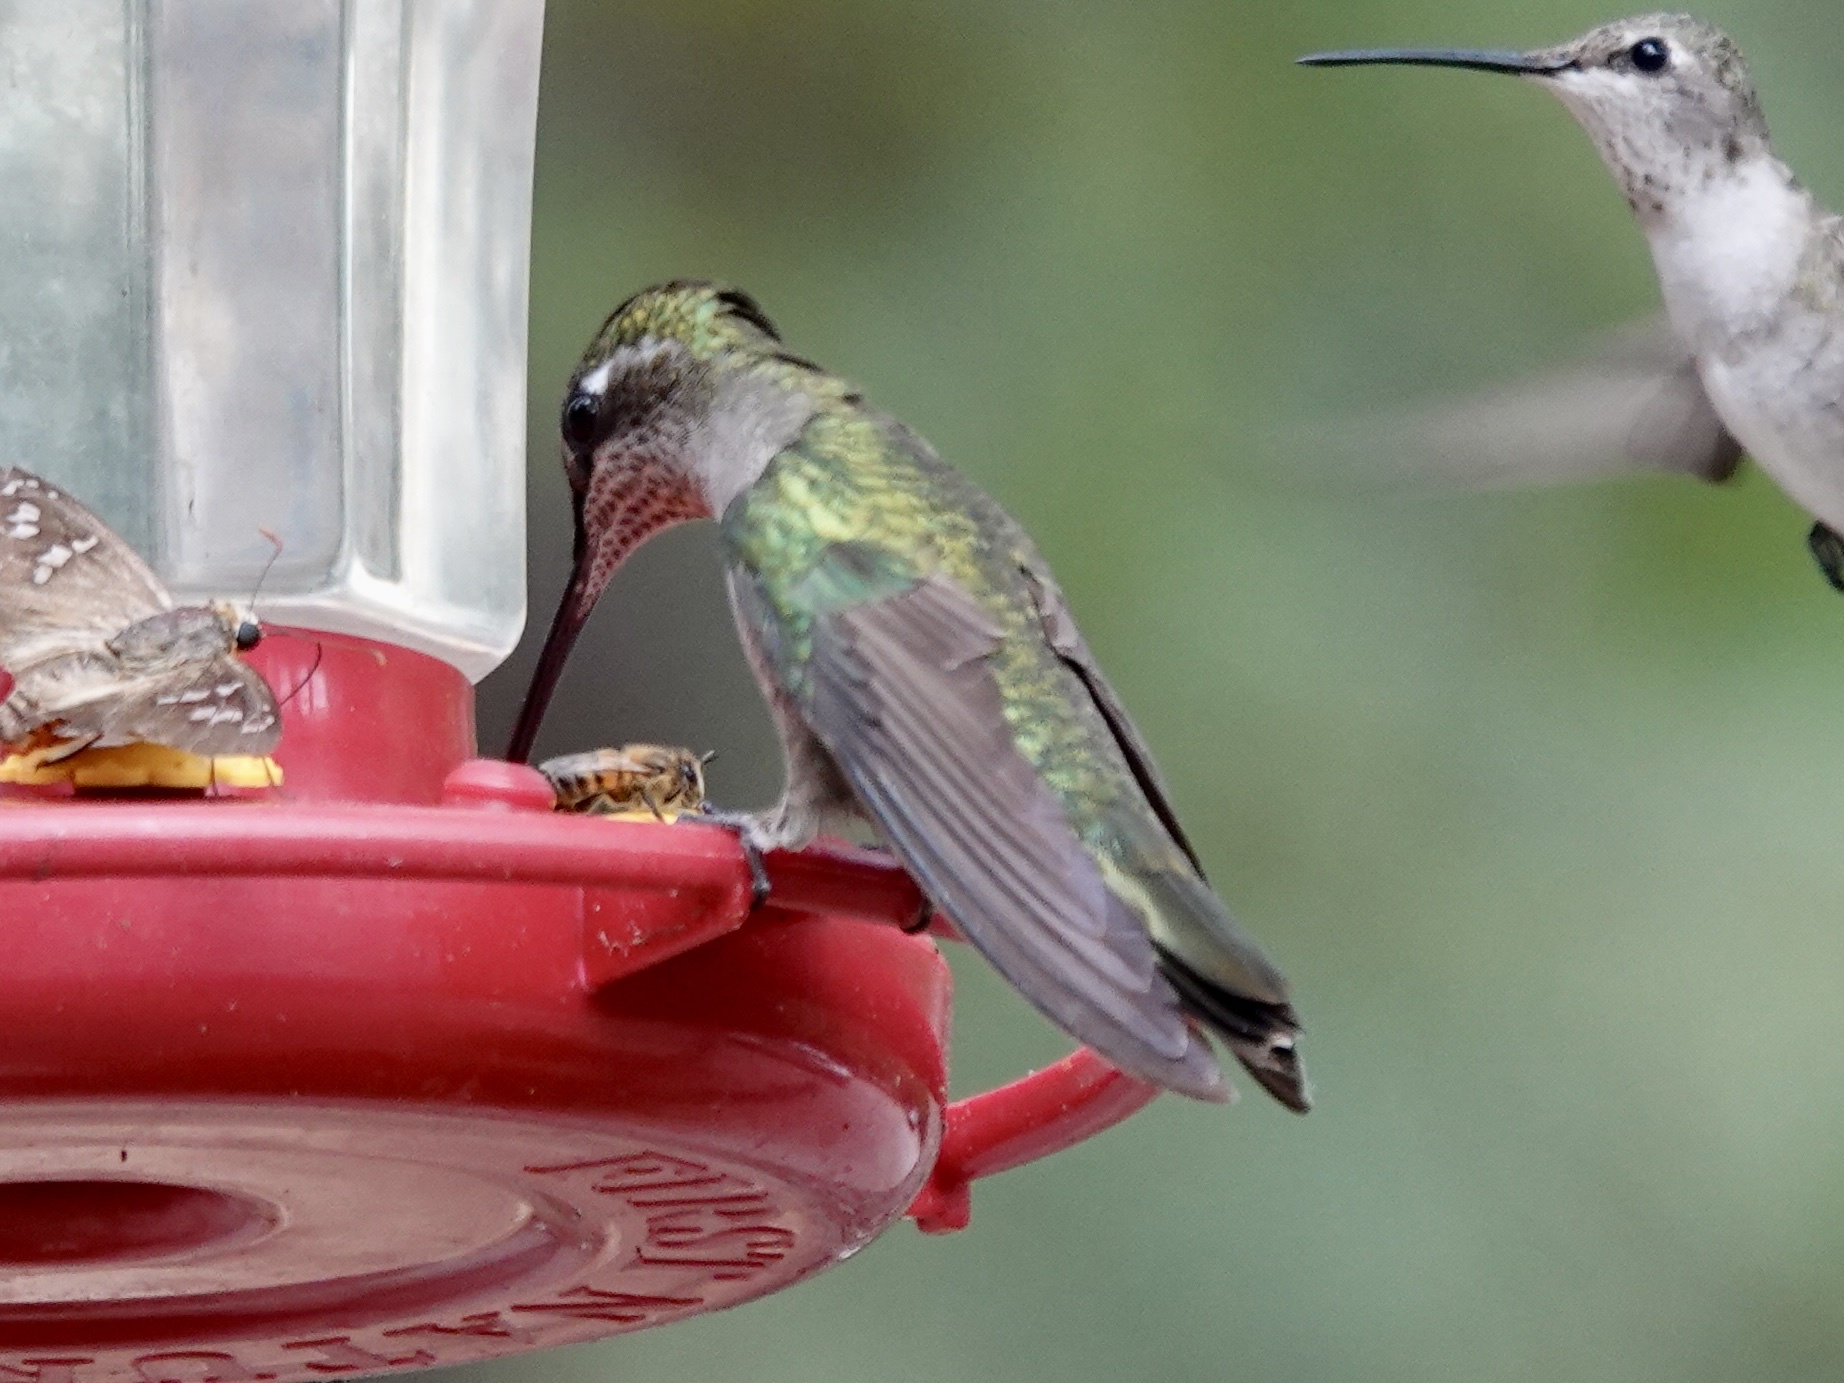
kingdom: Animalia
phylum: Chordata
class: Aves
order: Apodiformes
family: Trochilidae
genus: Calypte
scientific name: Calypte anna
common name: Anna's hummingbird
